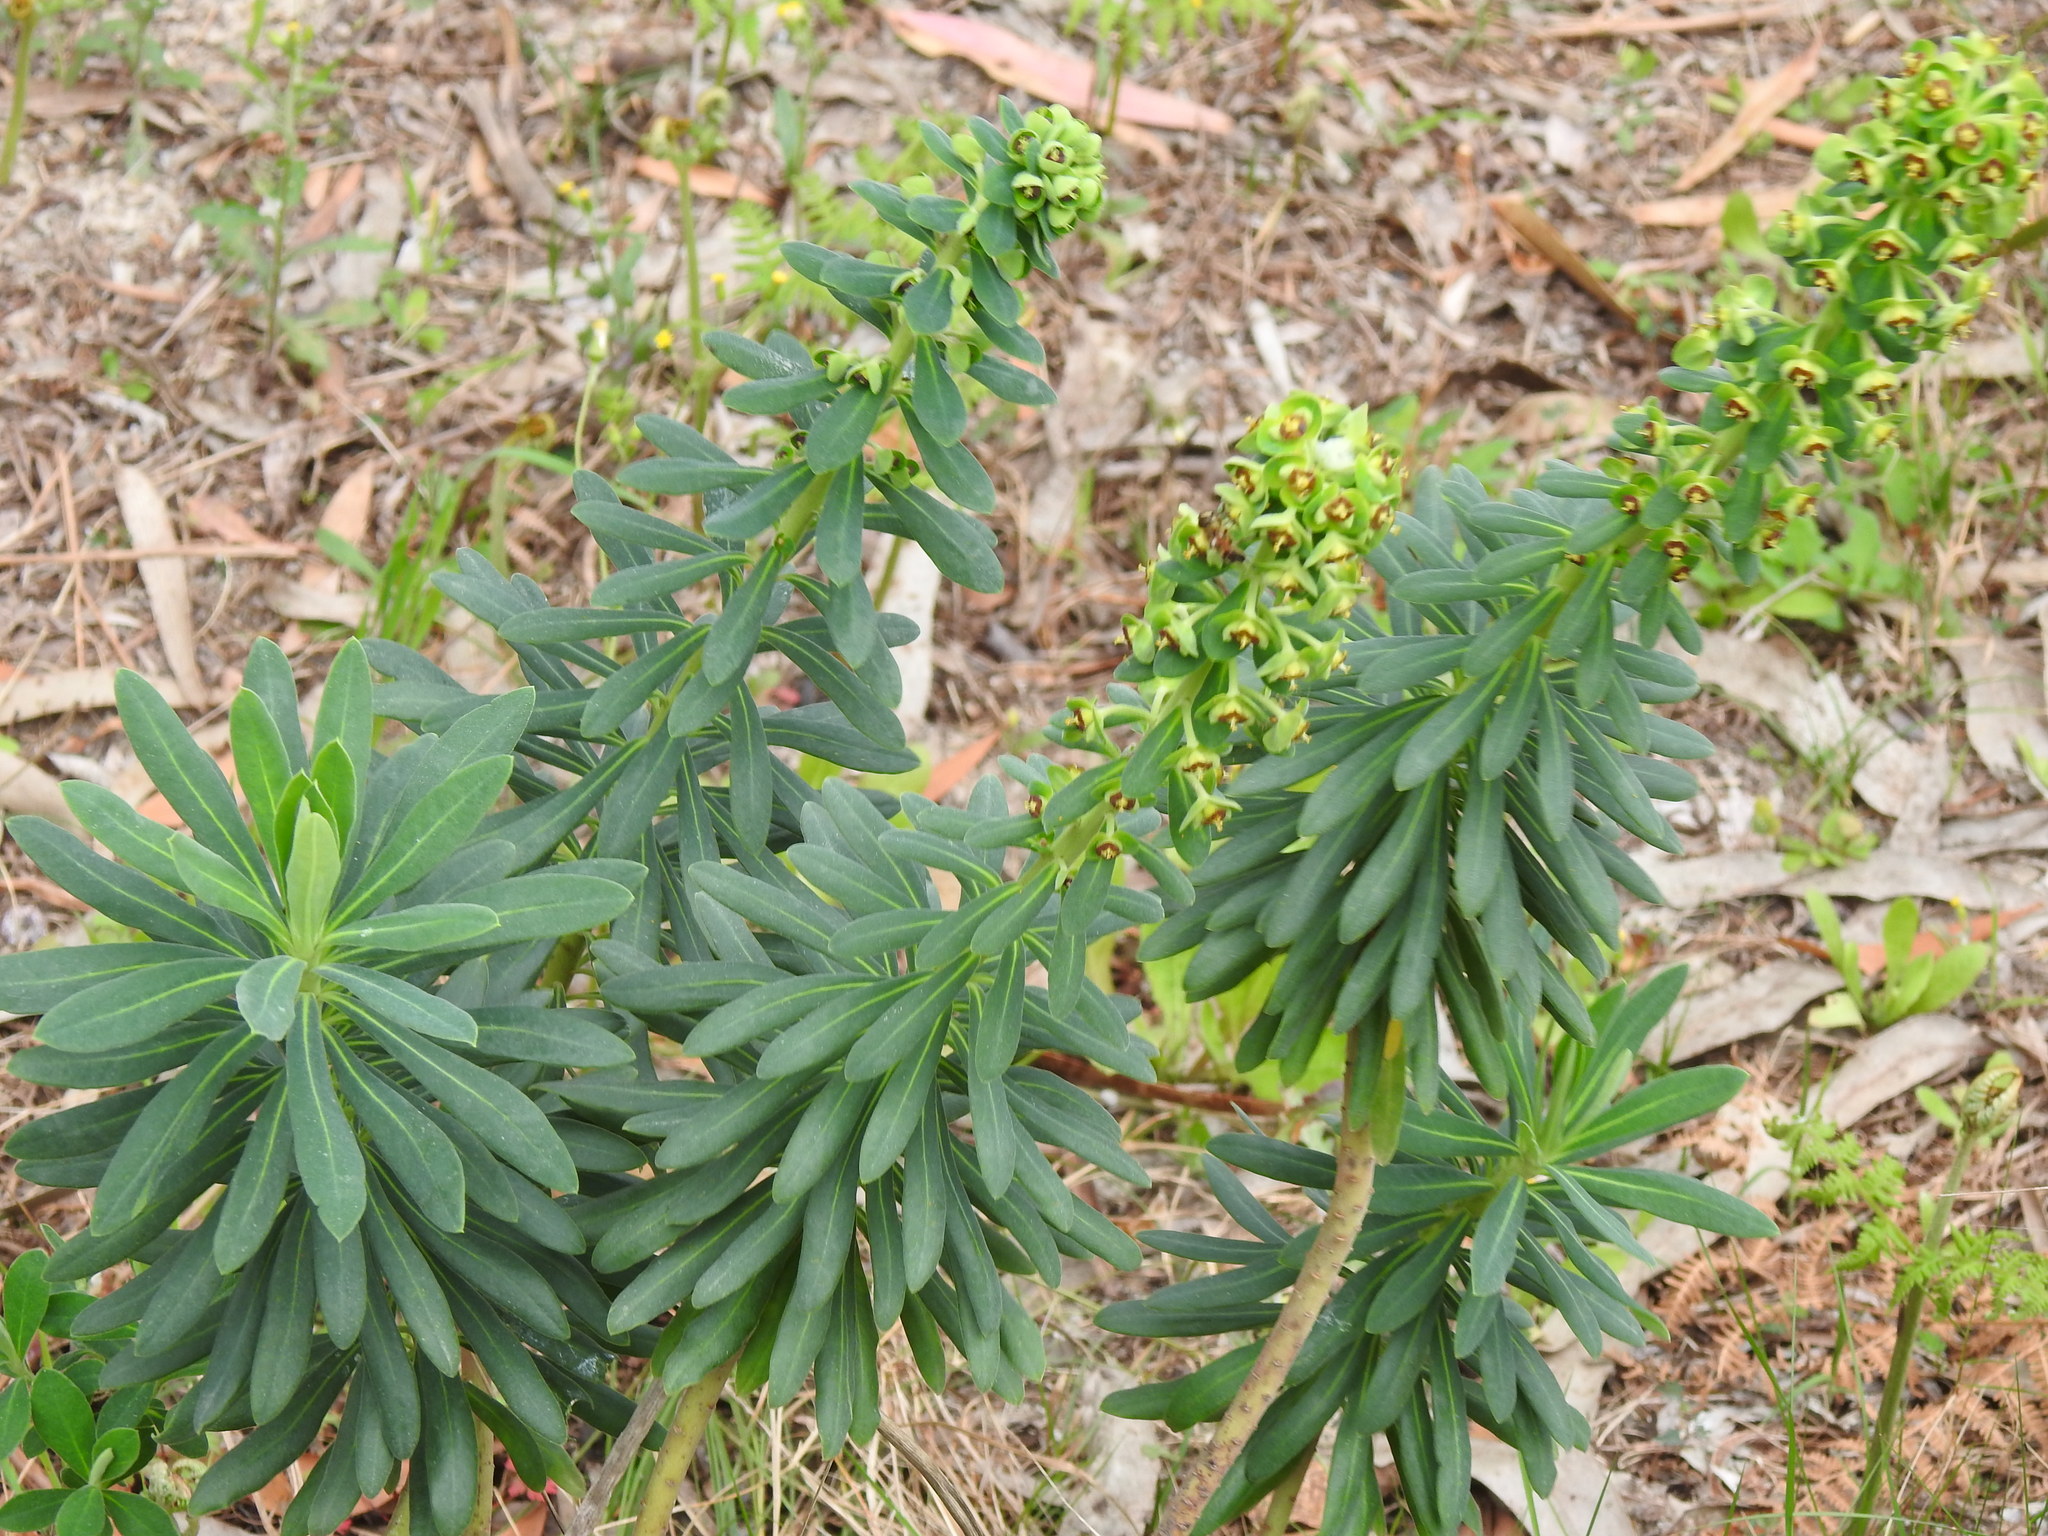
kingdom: Plantae
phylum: Tracheophyta
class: Magnoliopsida
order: Malpighiales
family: Euphorbiaceae
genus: Euphorbia
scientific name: Euphorbia characias
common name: Mediterranean spurge
